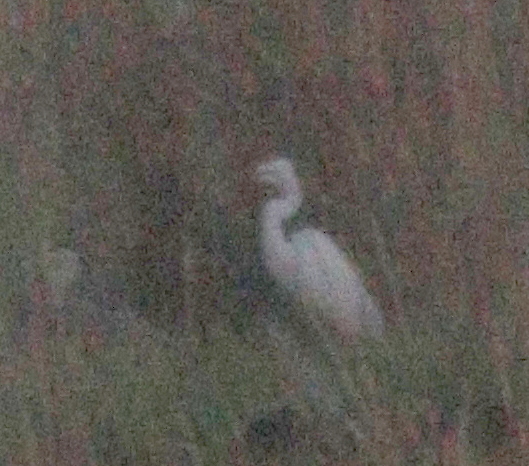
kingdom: Animalia
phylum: Chordata
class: Aves
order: Pelecaniformes
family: Ardeidae
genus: Ardea
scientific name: Ardea alba
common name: Great egret
